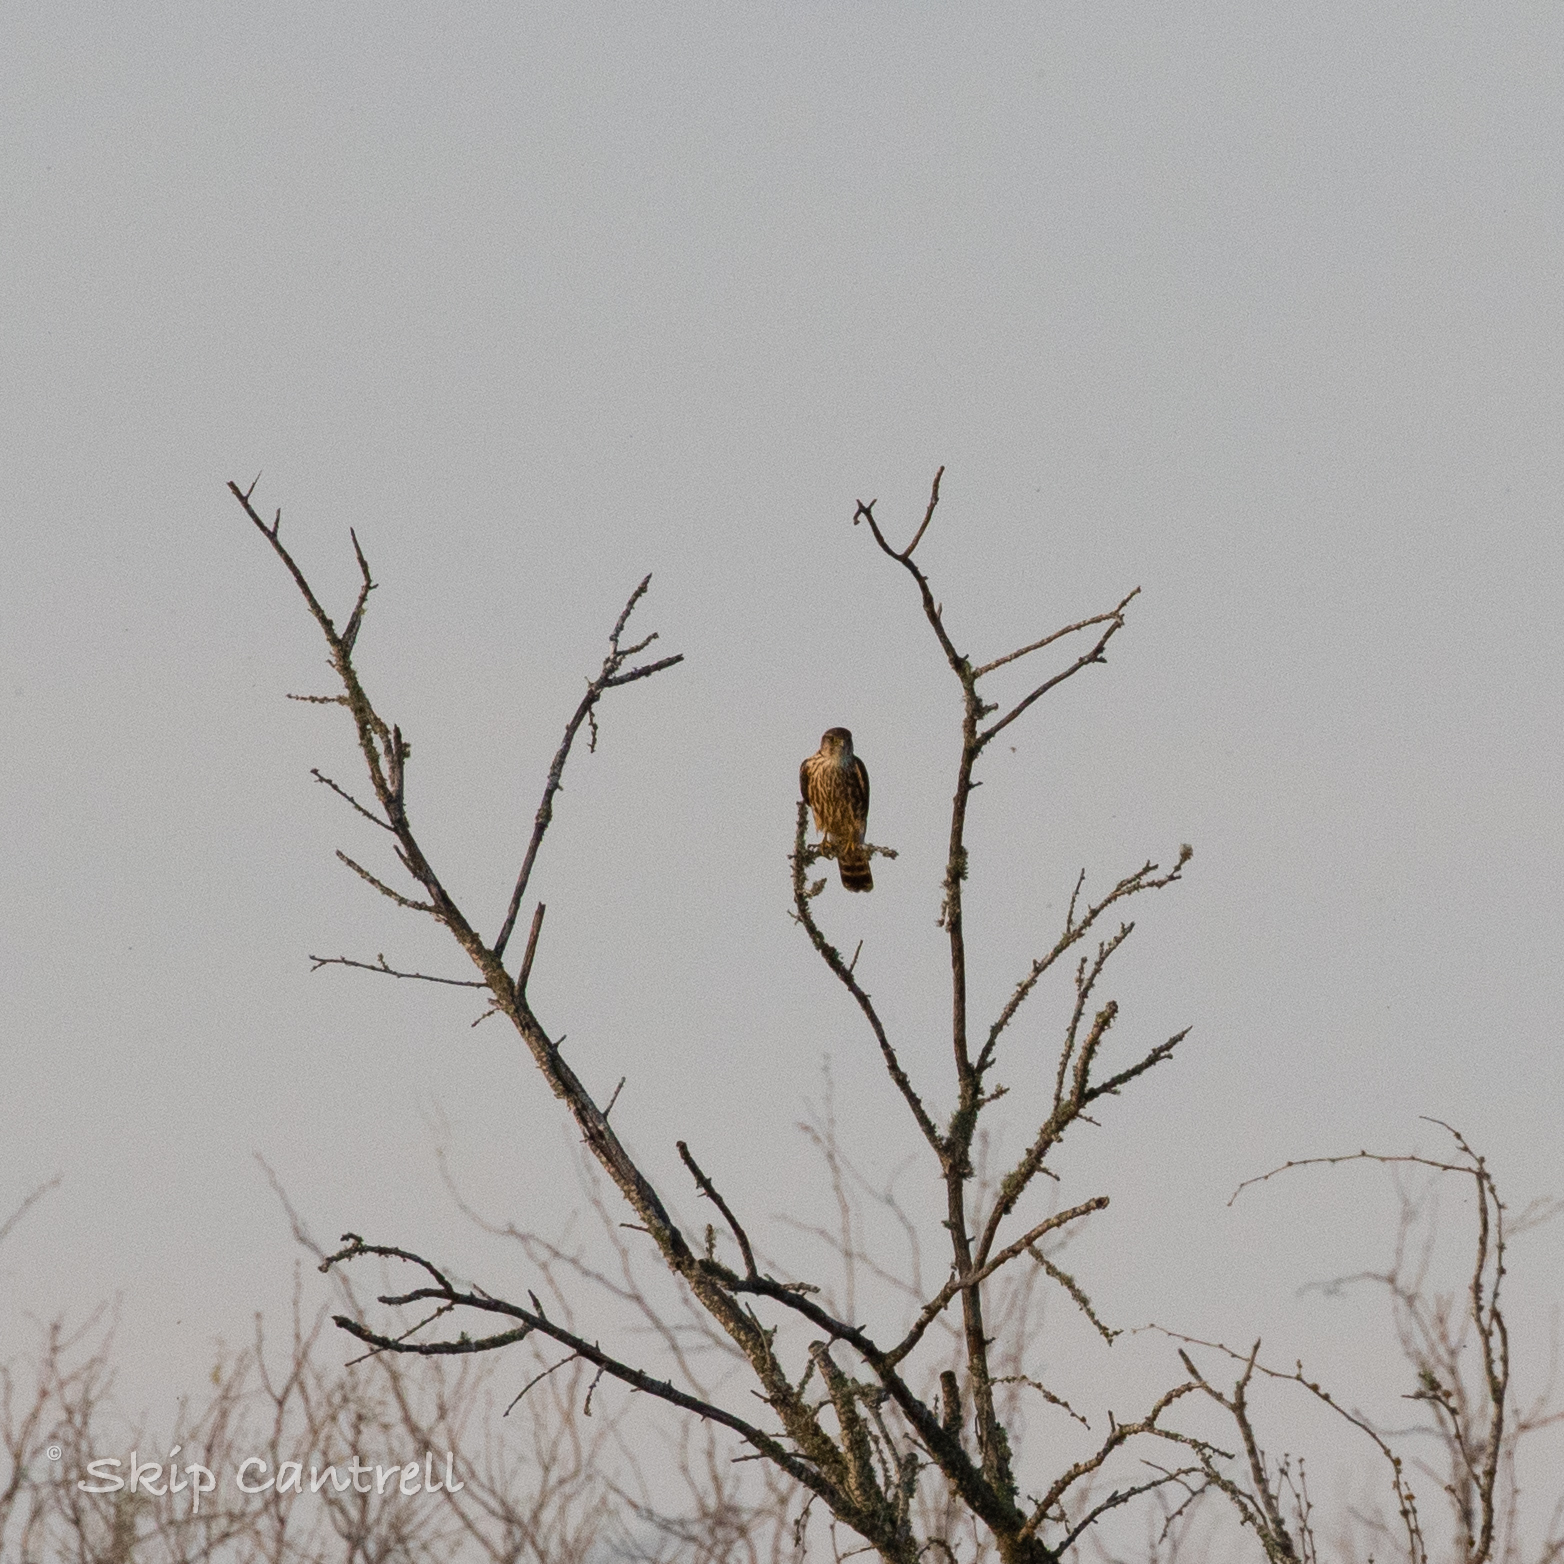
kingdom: Animalia
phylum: Chordata
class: Aves
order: Falconiformes
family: Falconidae
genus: Falco
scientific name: Falco columbarius
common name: Merlin
